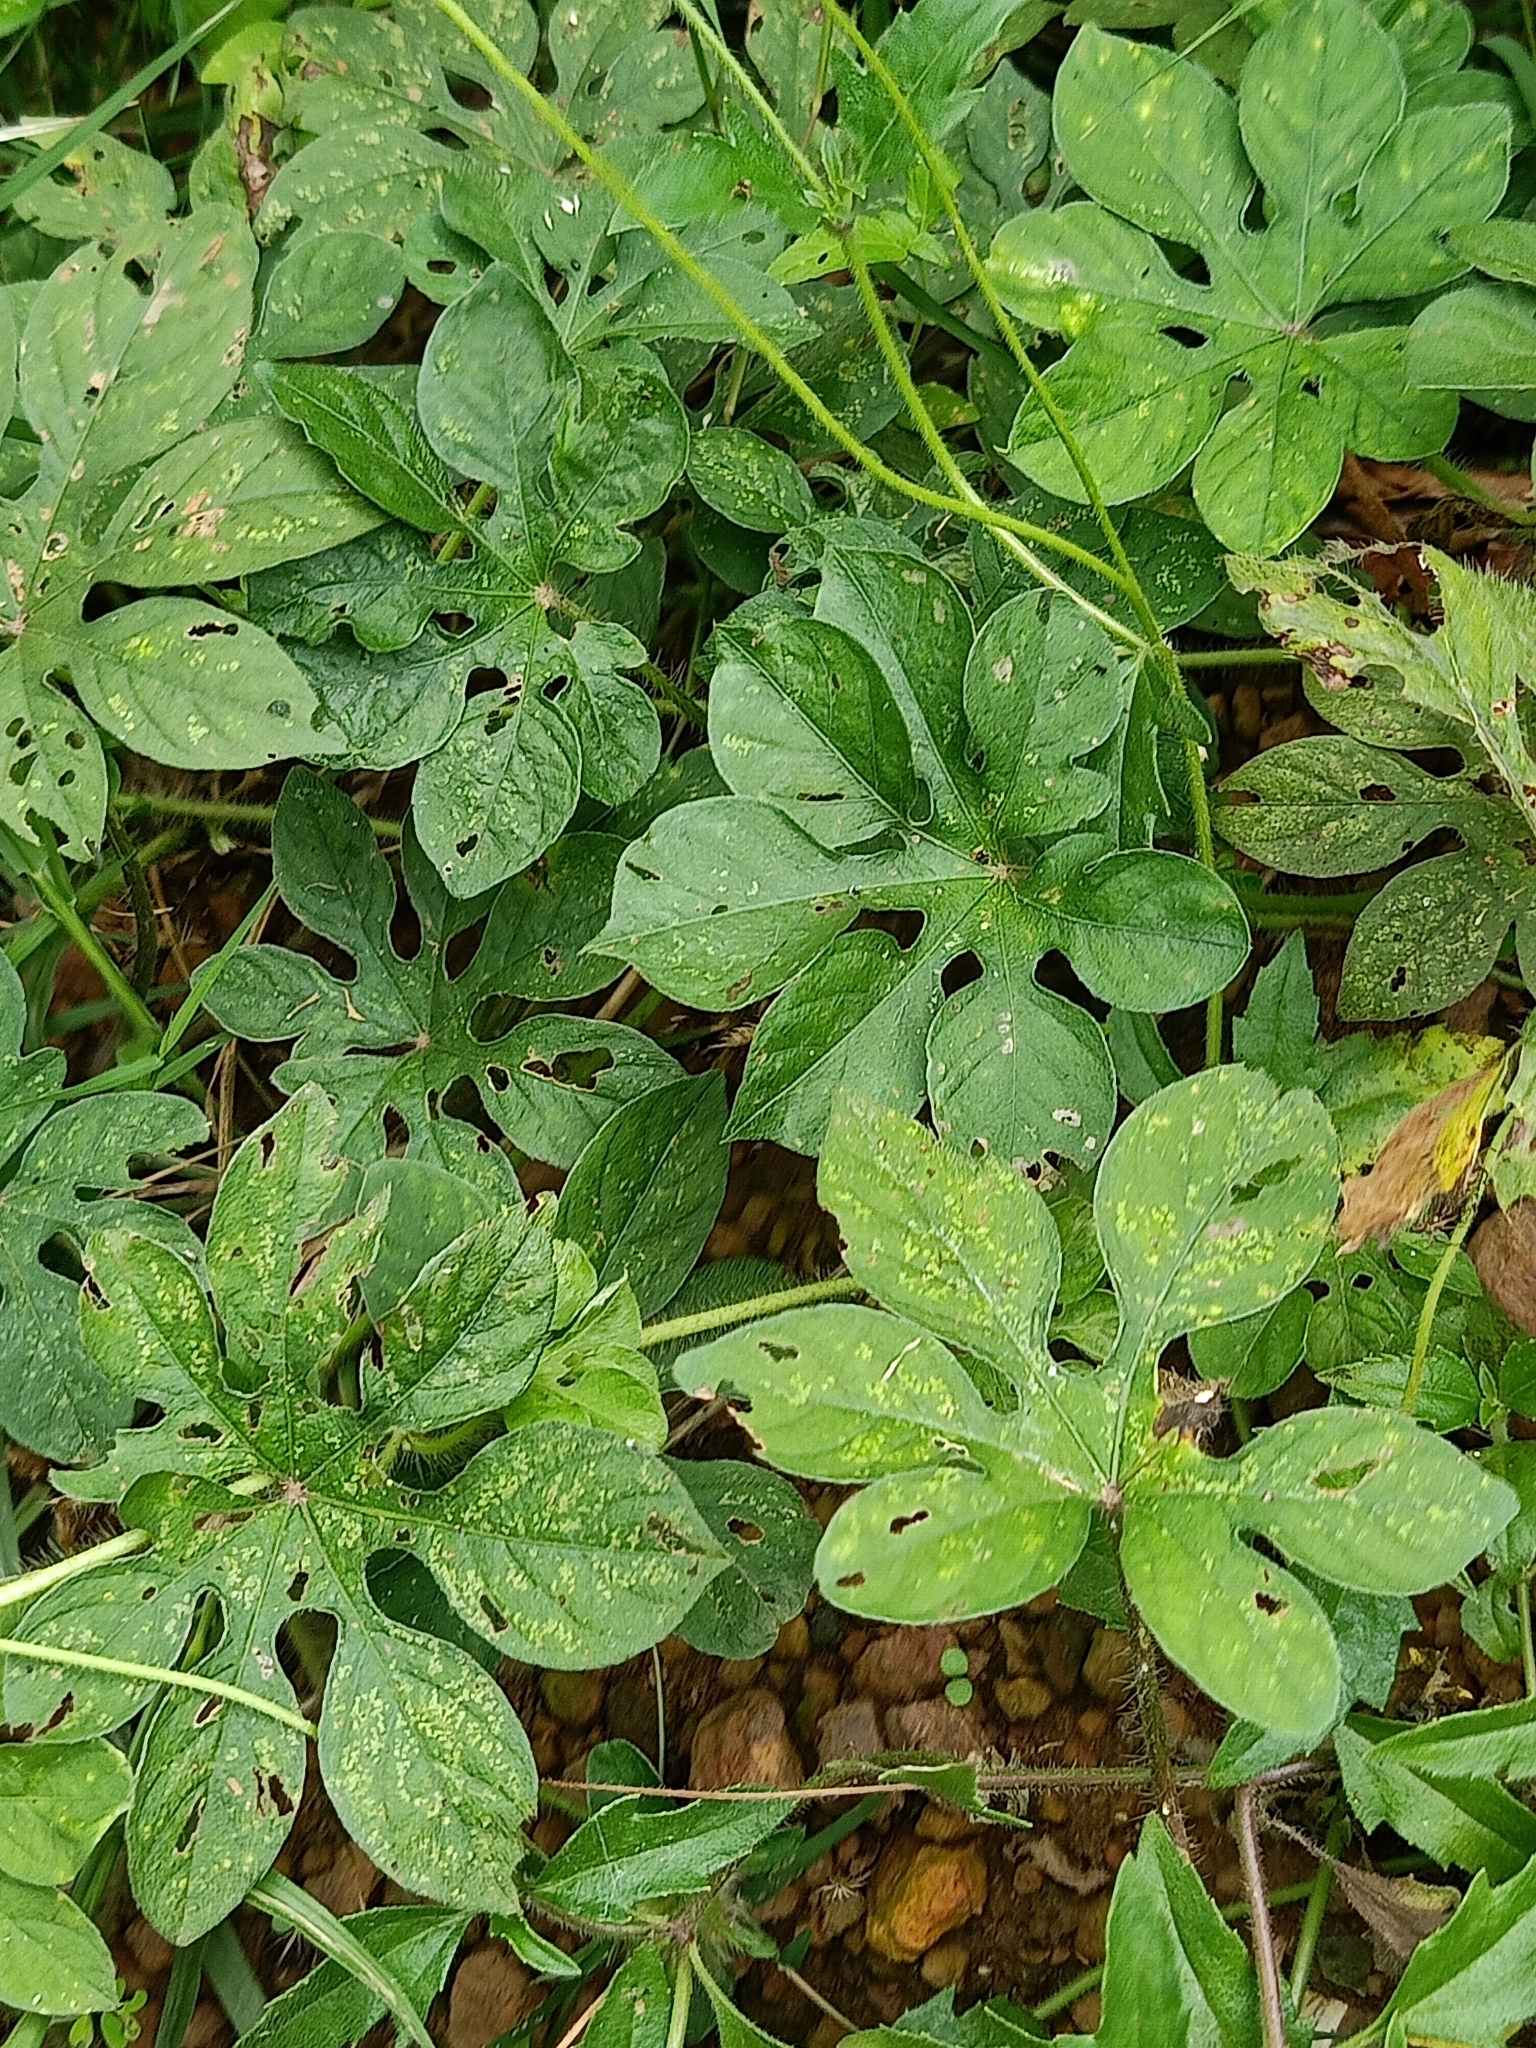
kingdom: Plantae
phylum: Tracheophyta
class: Magnoliopsida
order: Solanales
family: Convolvulaceae
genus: Ipomoea
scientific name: Ipomoea pes-tigridis
